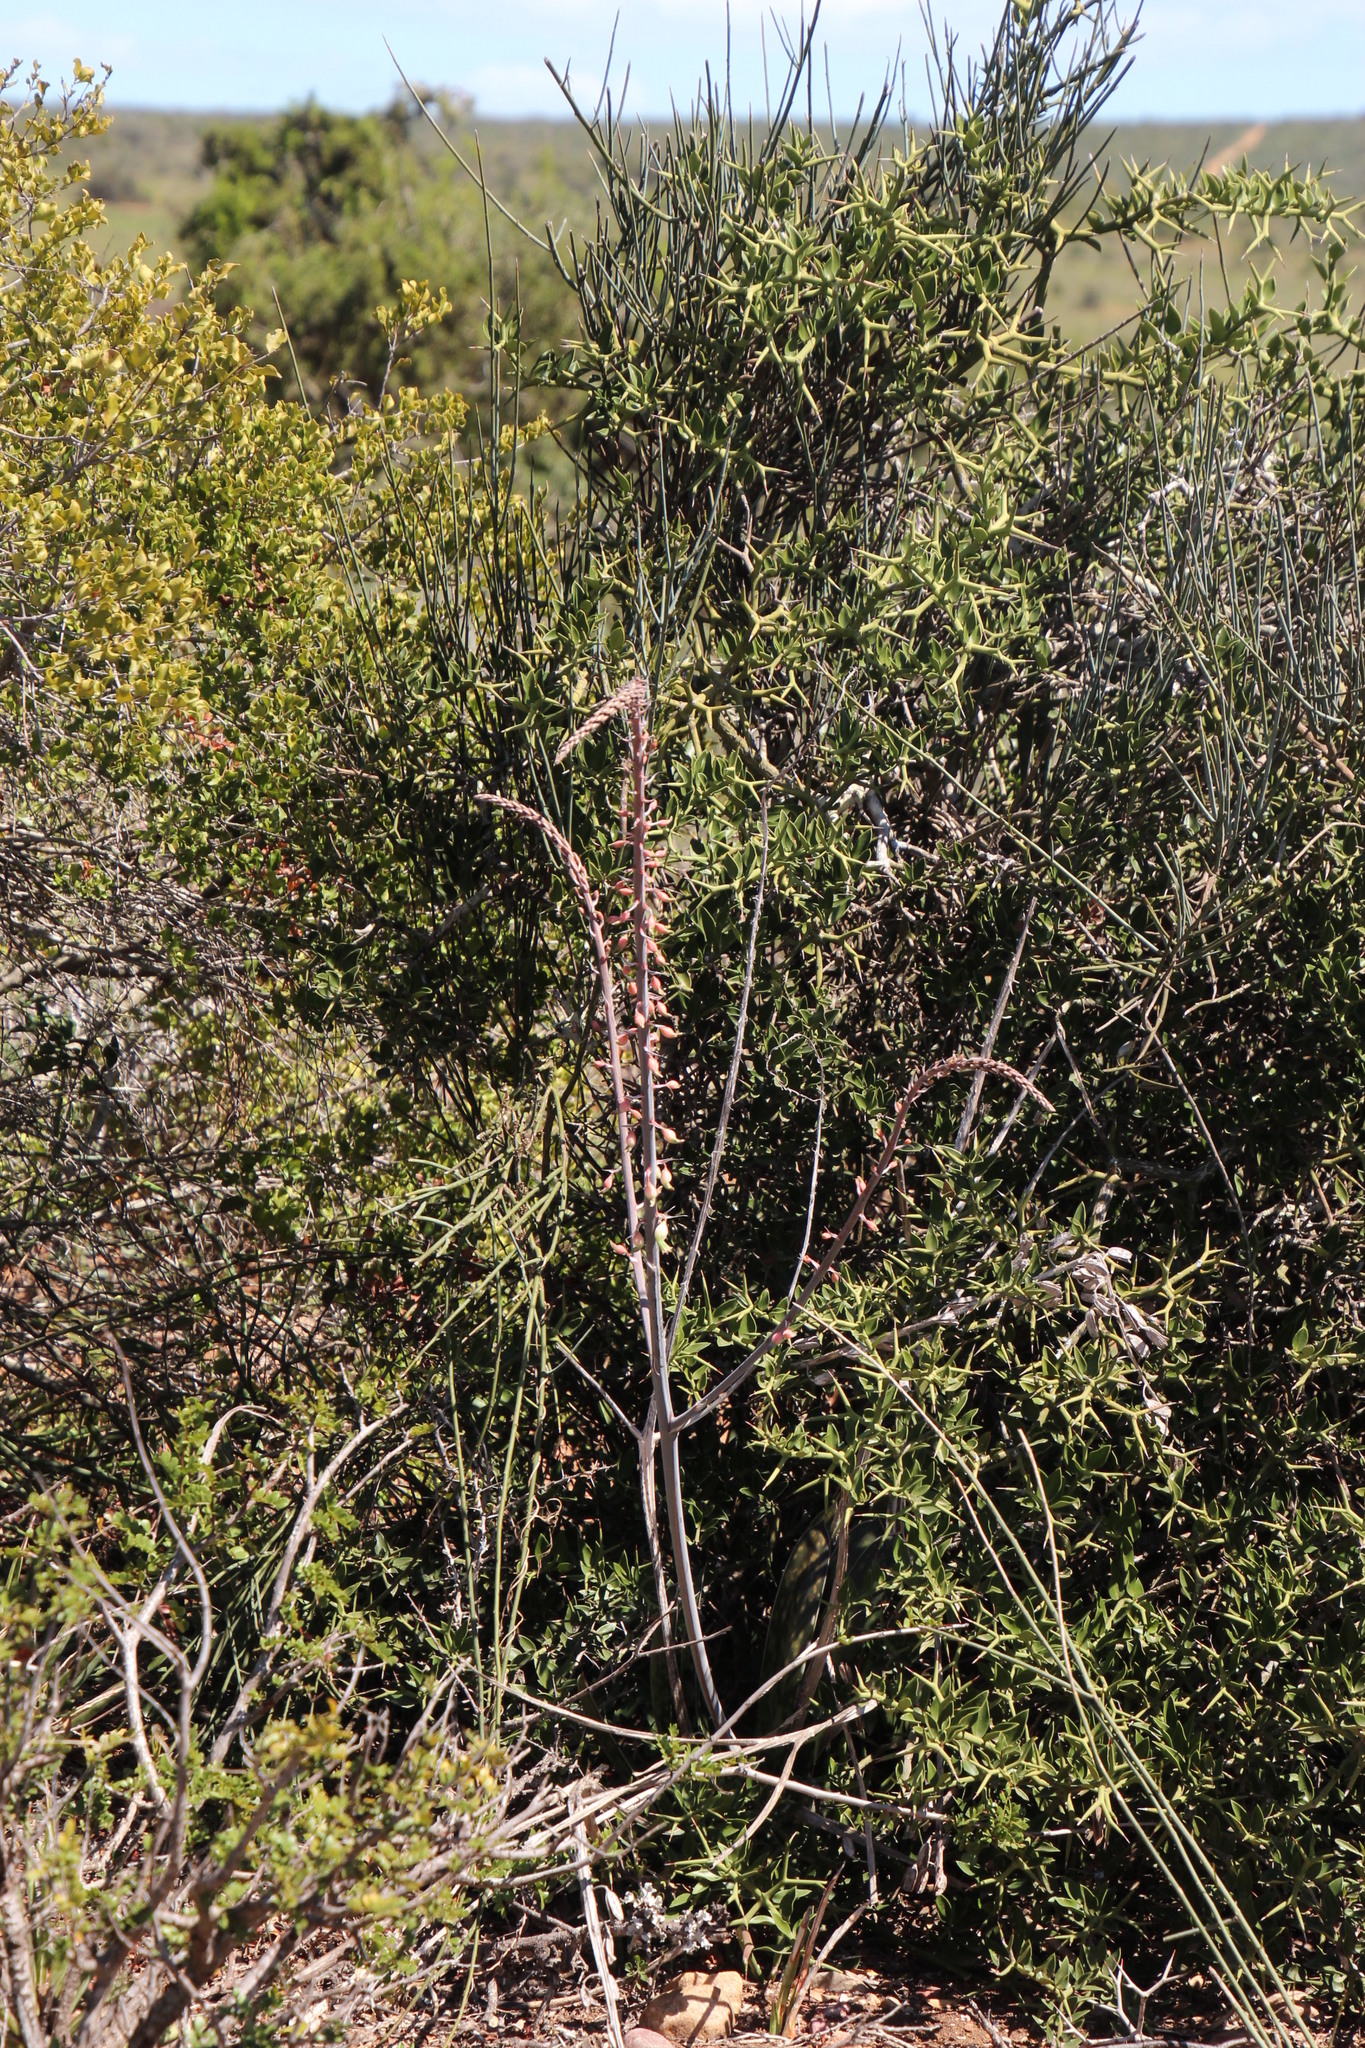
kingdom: Plantae
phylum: Tracheophyta
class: Liliopsida
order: Asparagales
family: Asphodelaceae
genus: Gasteria
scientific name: Gasteria obliqua
